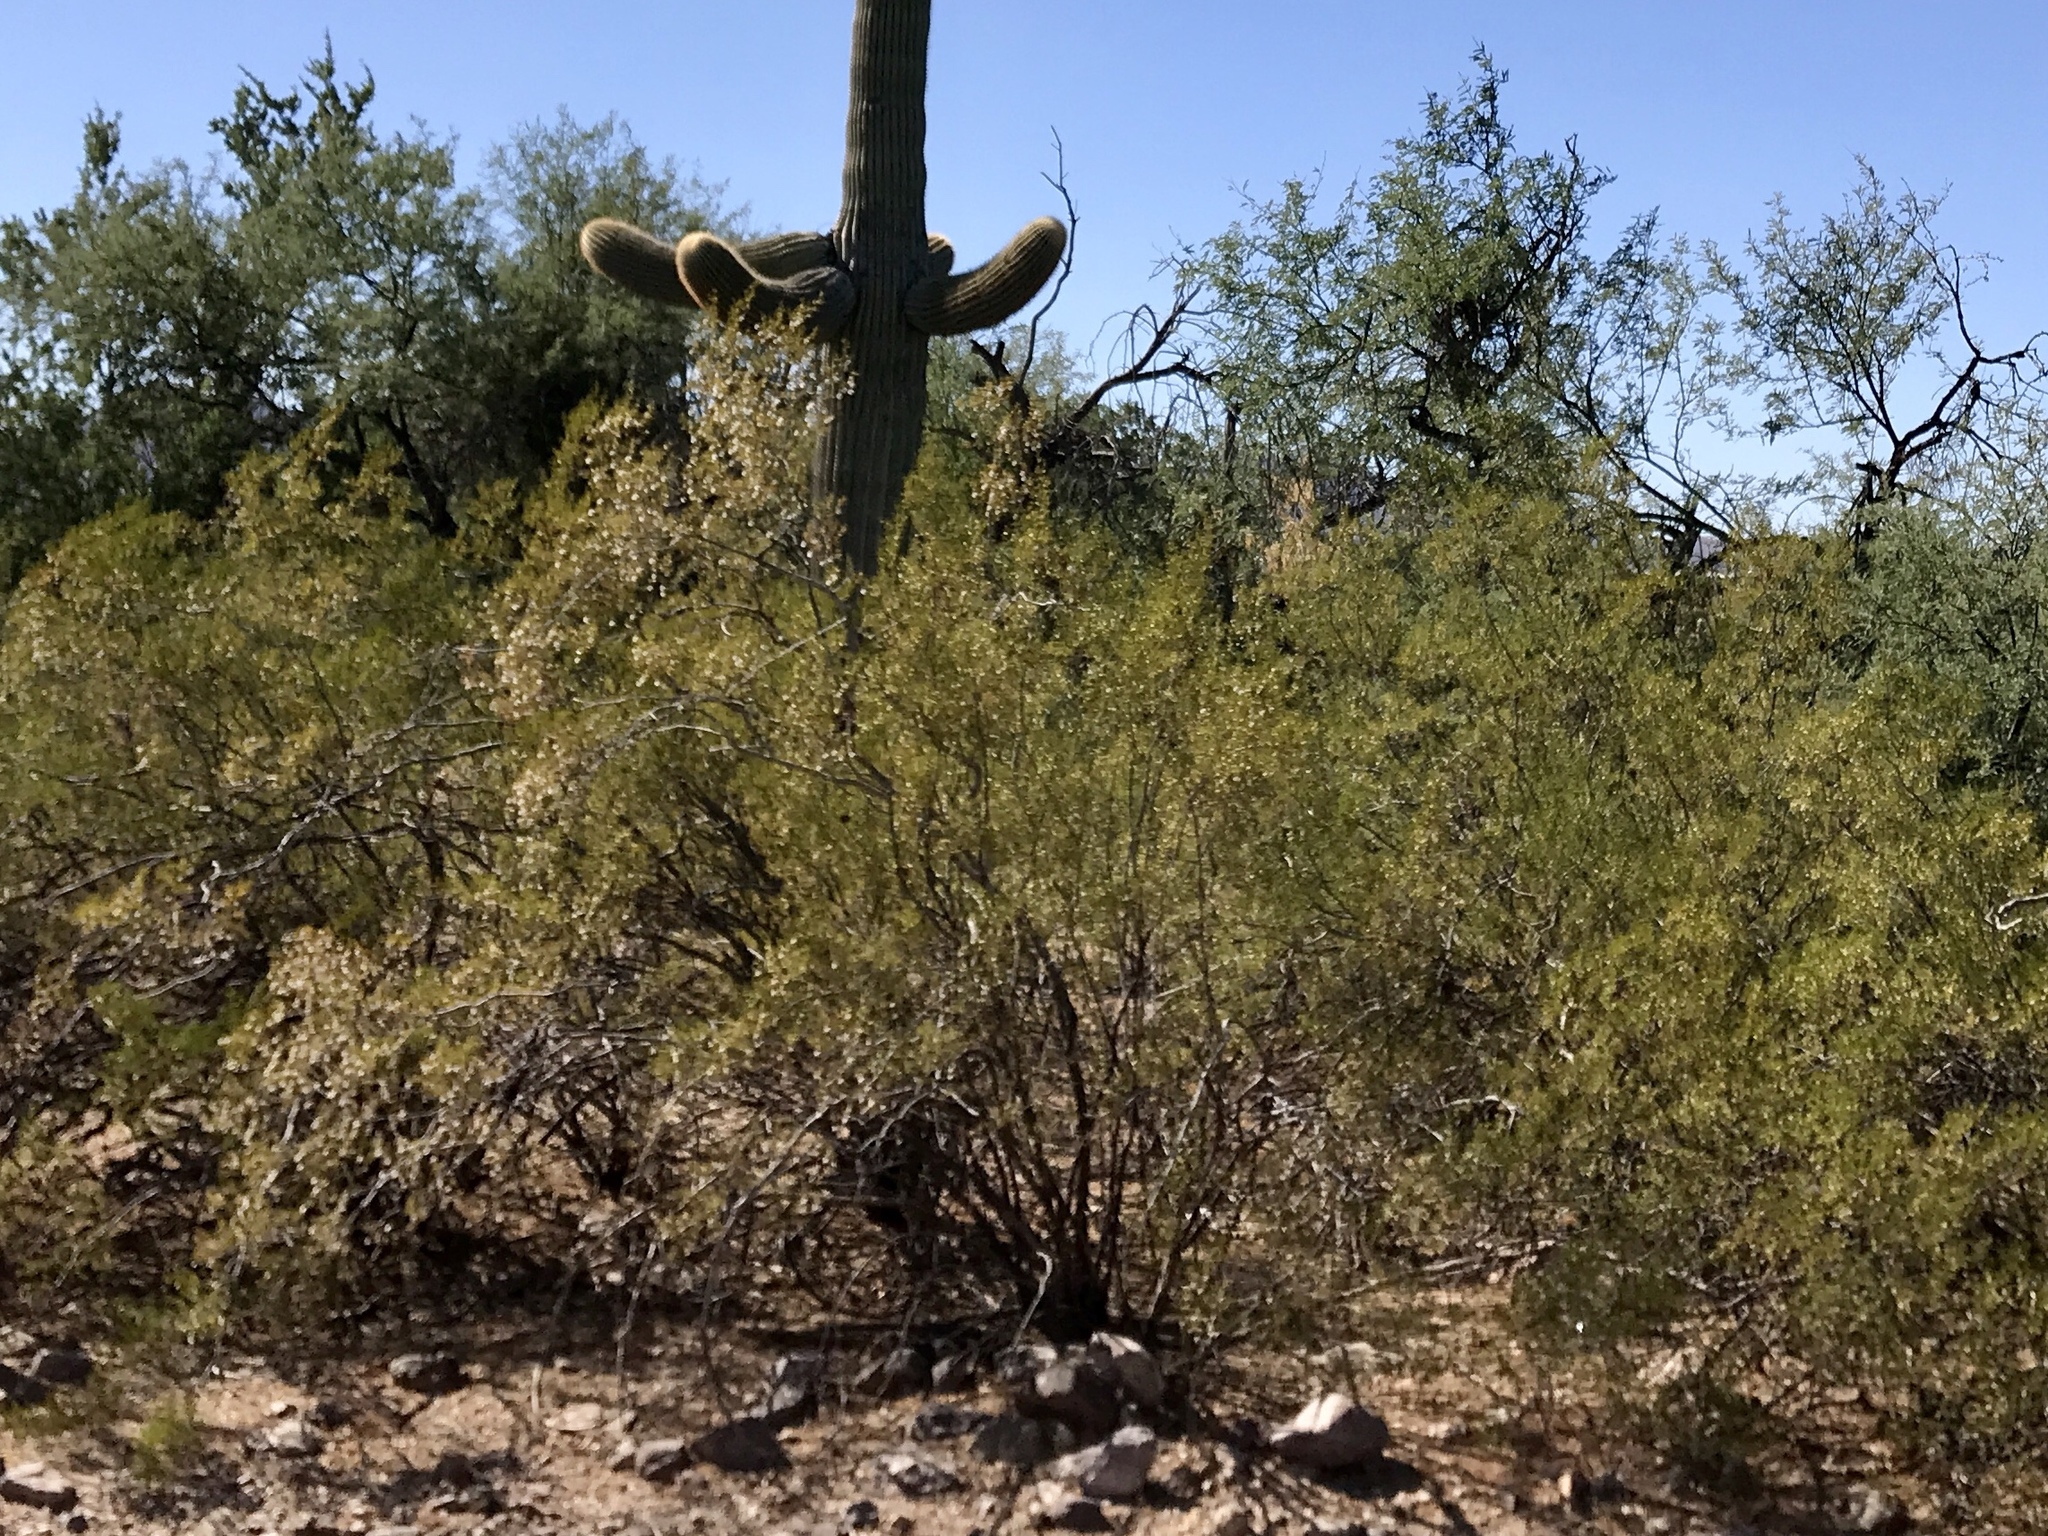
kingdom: Plantae
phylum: Tracheophyta
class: Magnoliopsida
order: Zygophyllales
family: Zygophyllaceae
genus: Larrea
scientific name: Larrea tridentata
